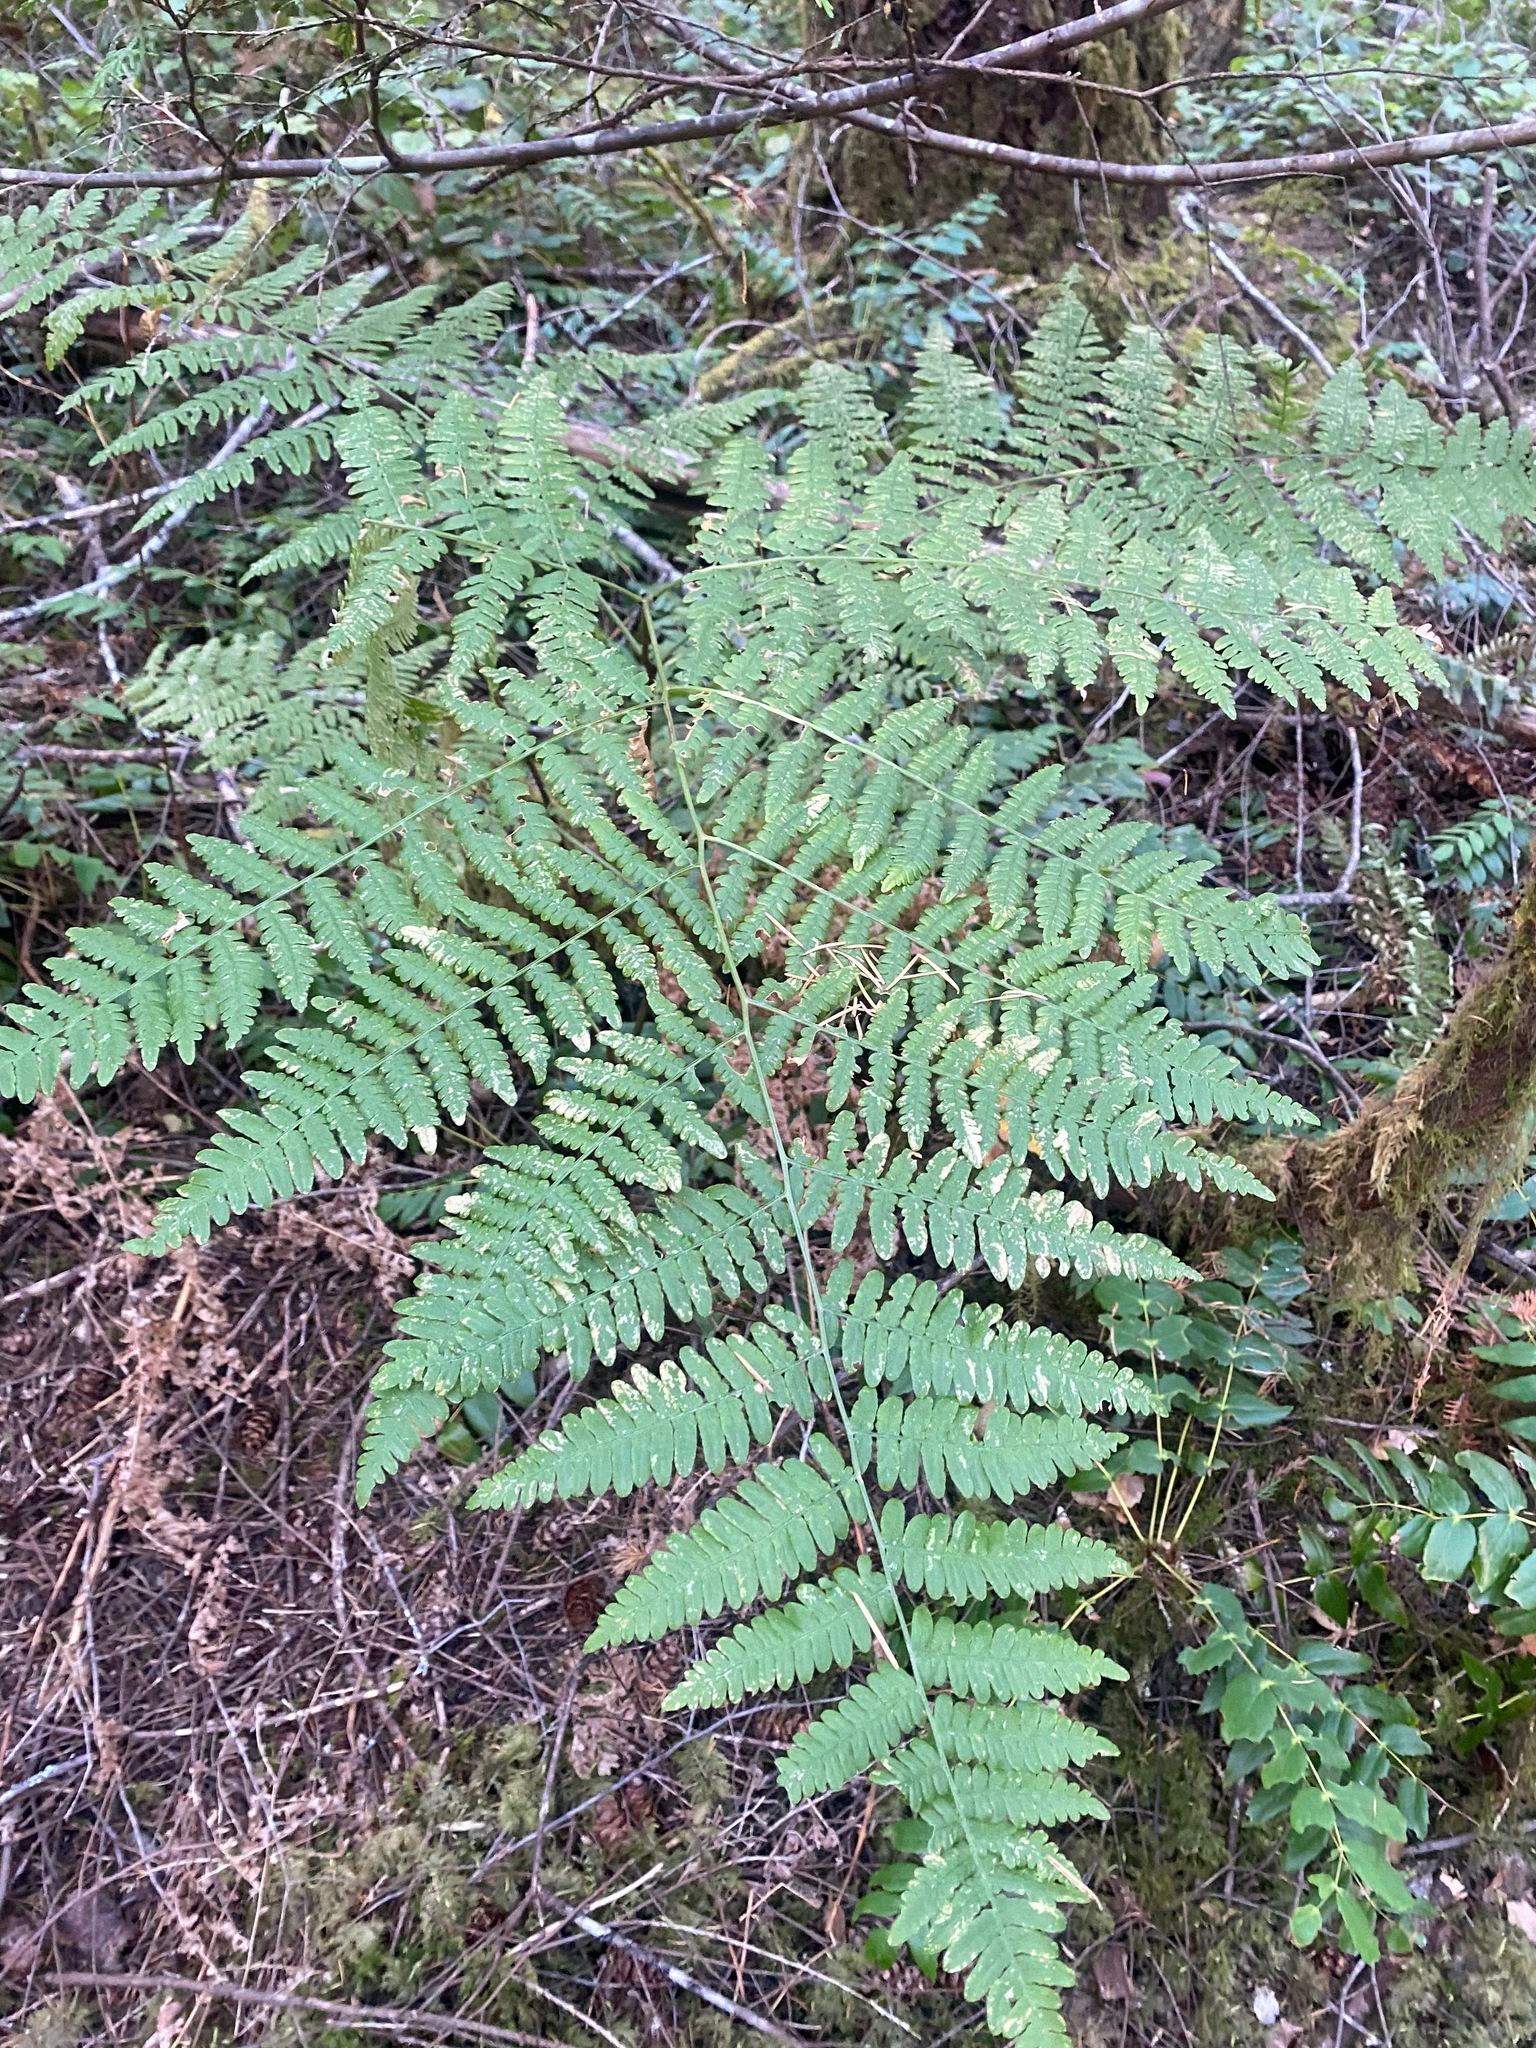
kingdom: Plantae
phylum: Tracheophyta
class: Polypodiopsida
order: Polypodiales
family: Dennstaedtiaceae
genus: Pteridium
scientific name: Pteridium aquilinum
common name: Bracken
